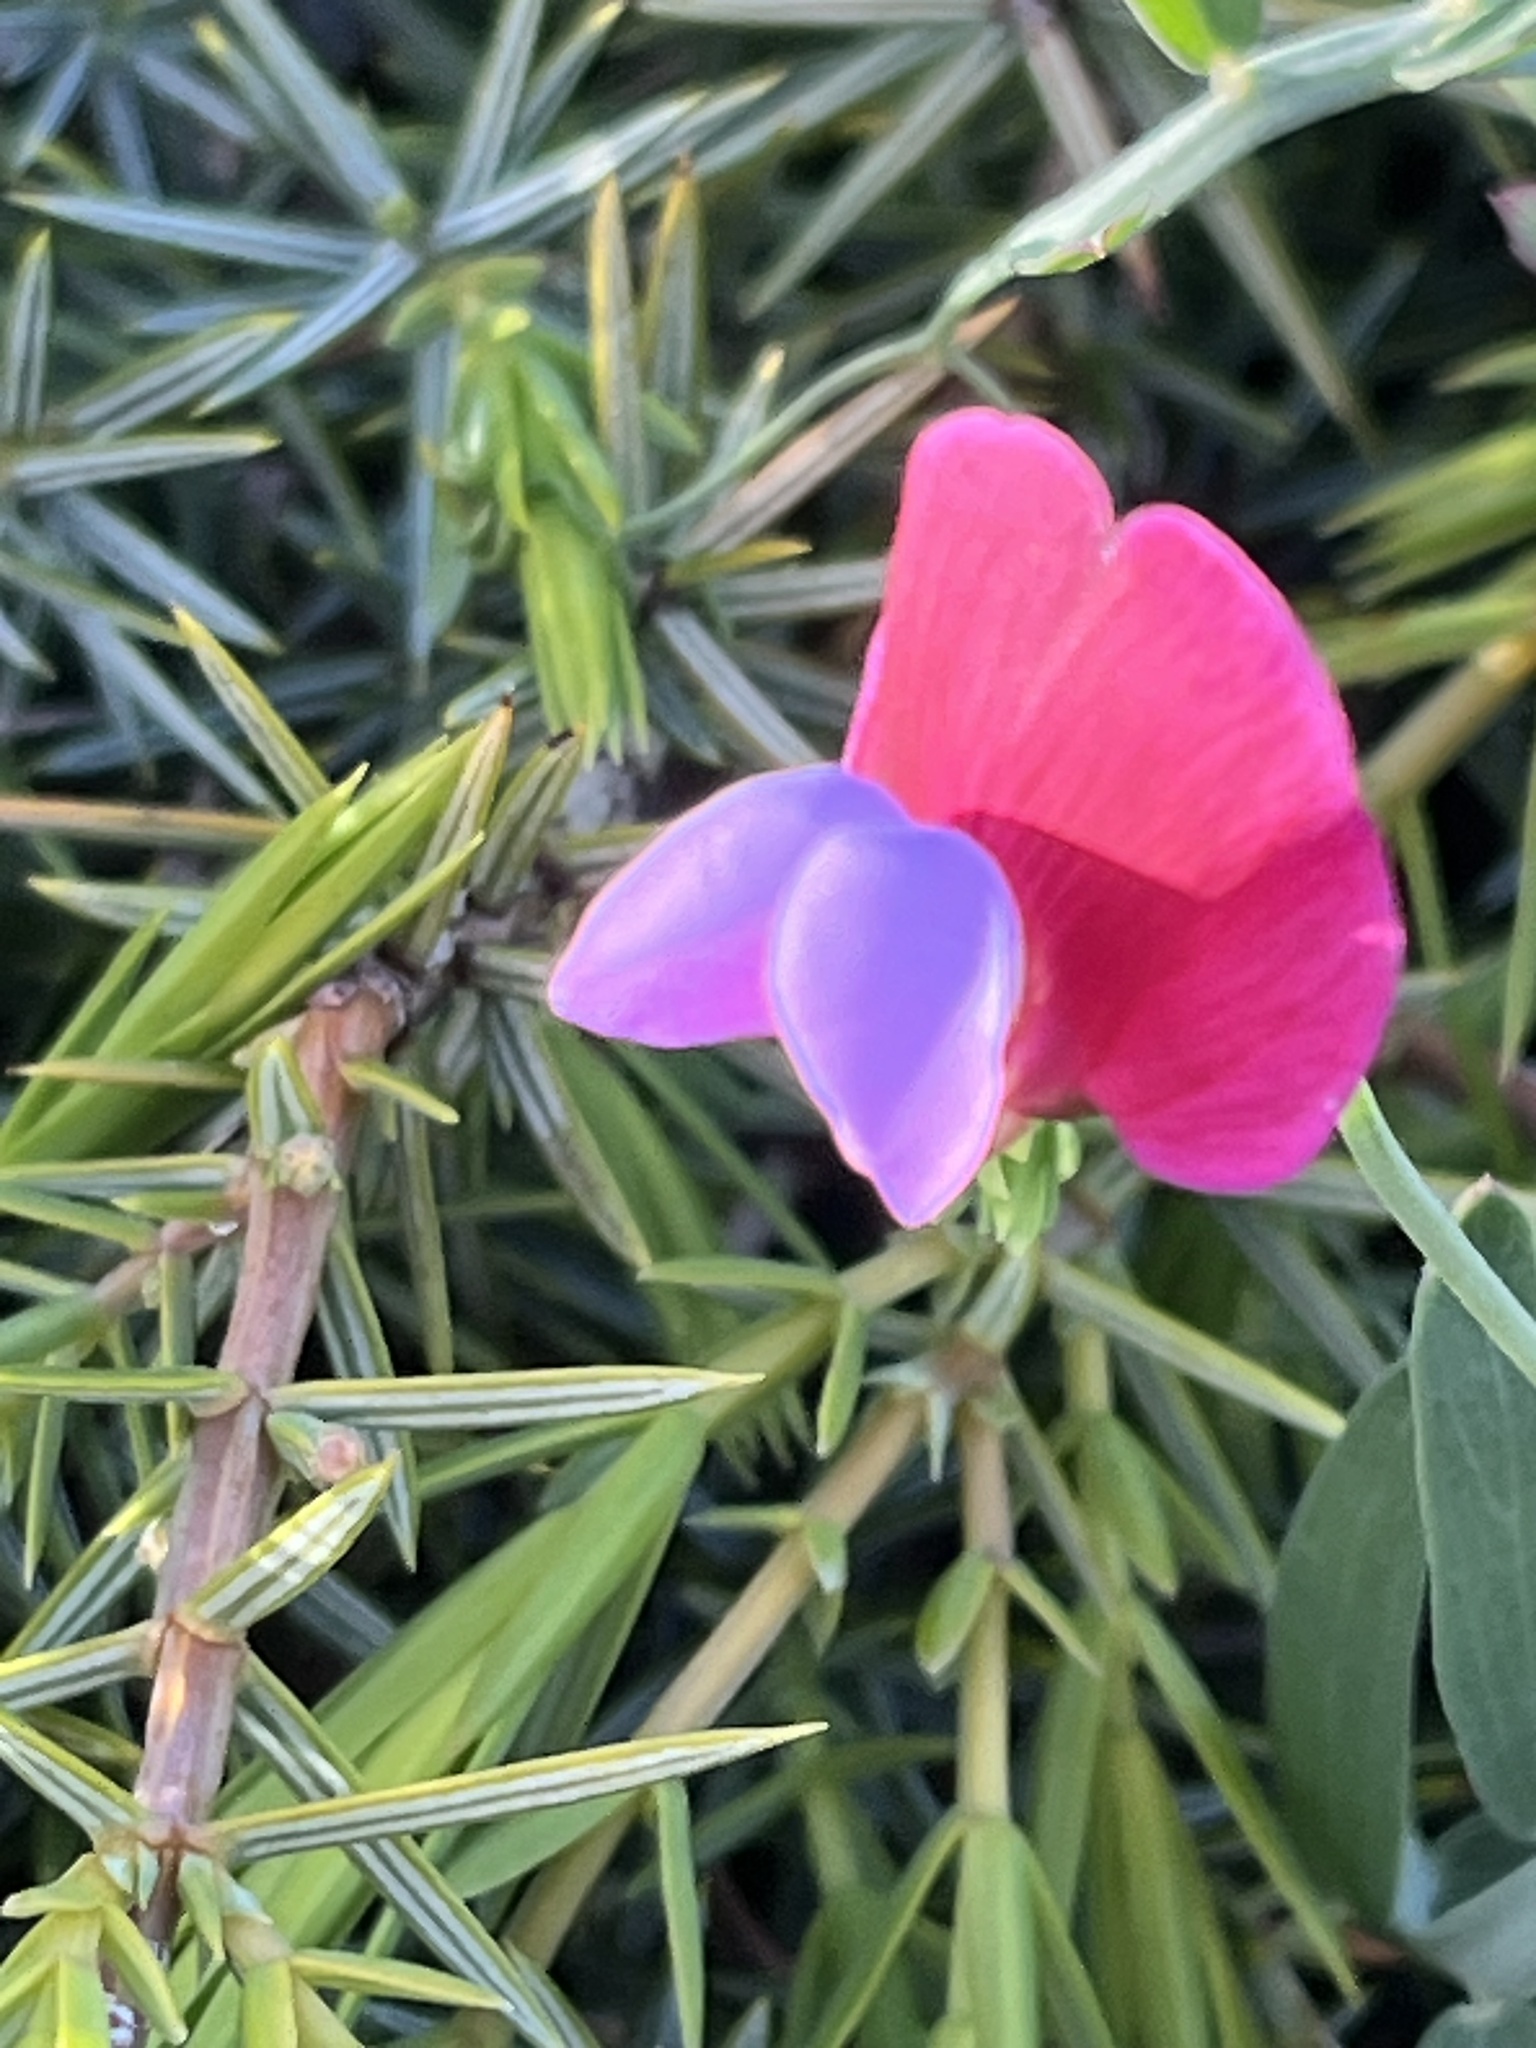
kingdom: Plantae
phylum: Tracheophyta
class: Magnoliopsida
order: Fabales
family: Fabaceae
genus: Lathyrus
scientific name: Lathyrus clymenum
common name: Spanish vetchling
